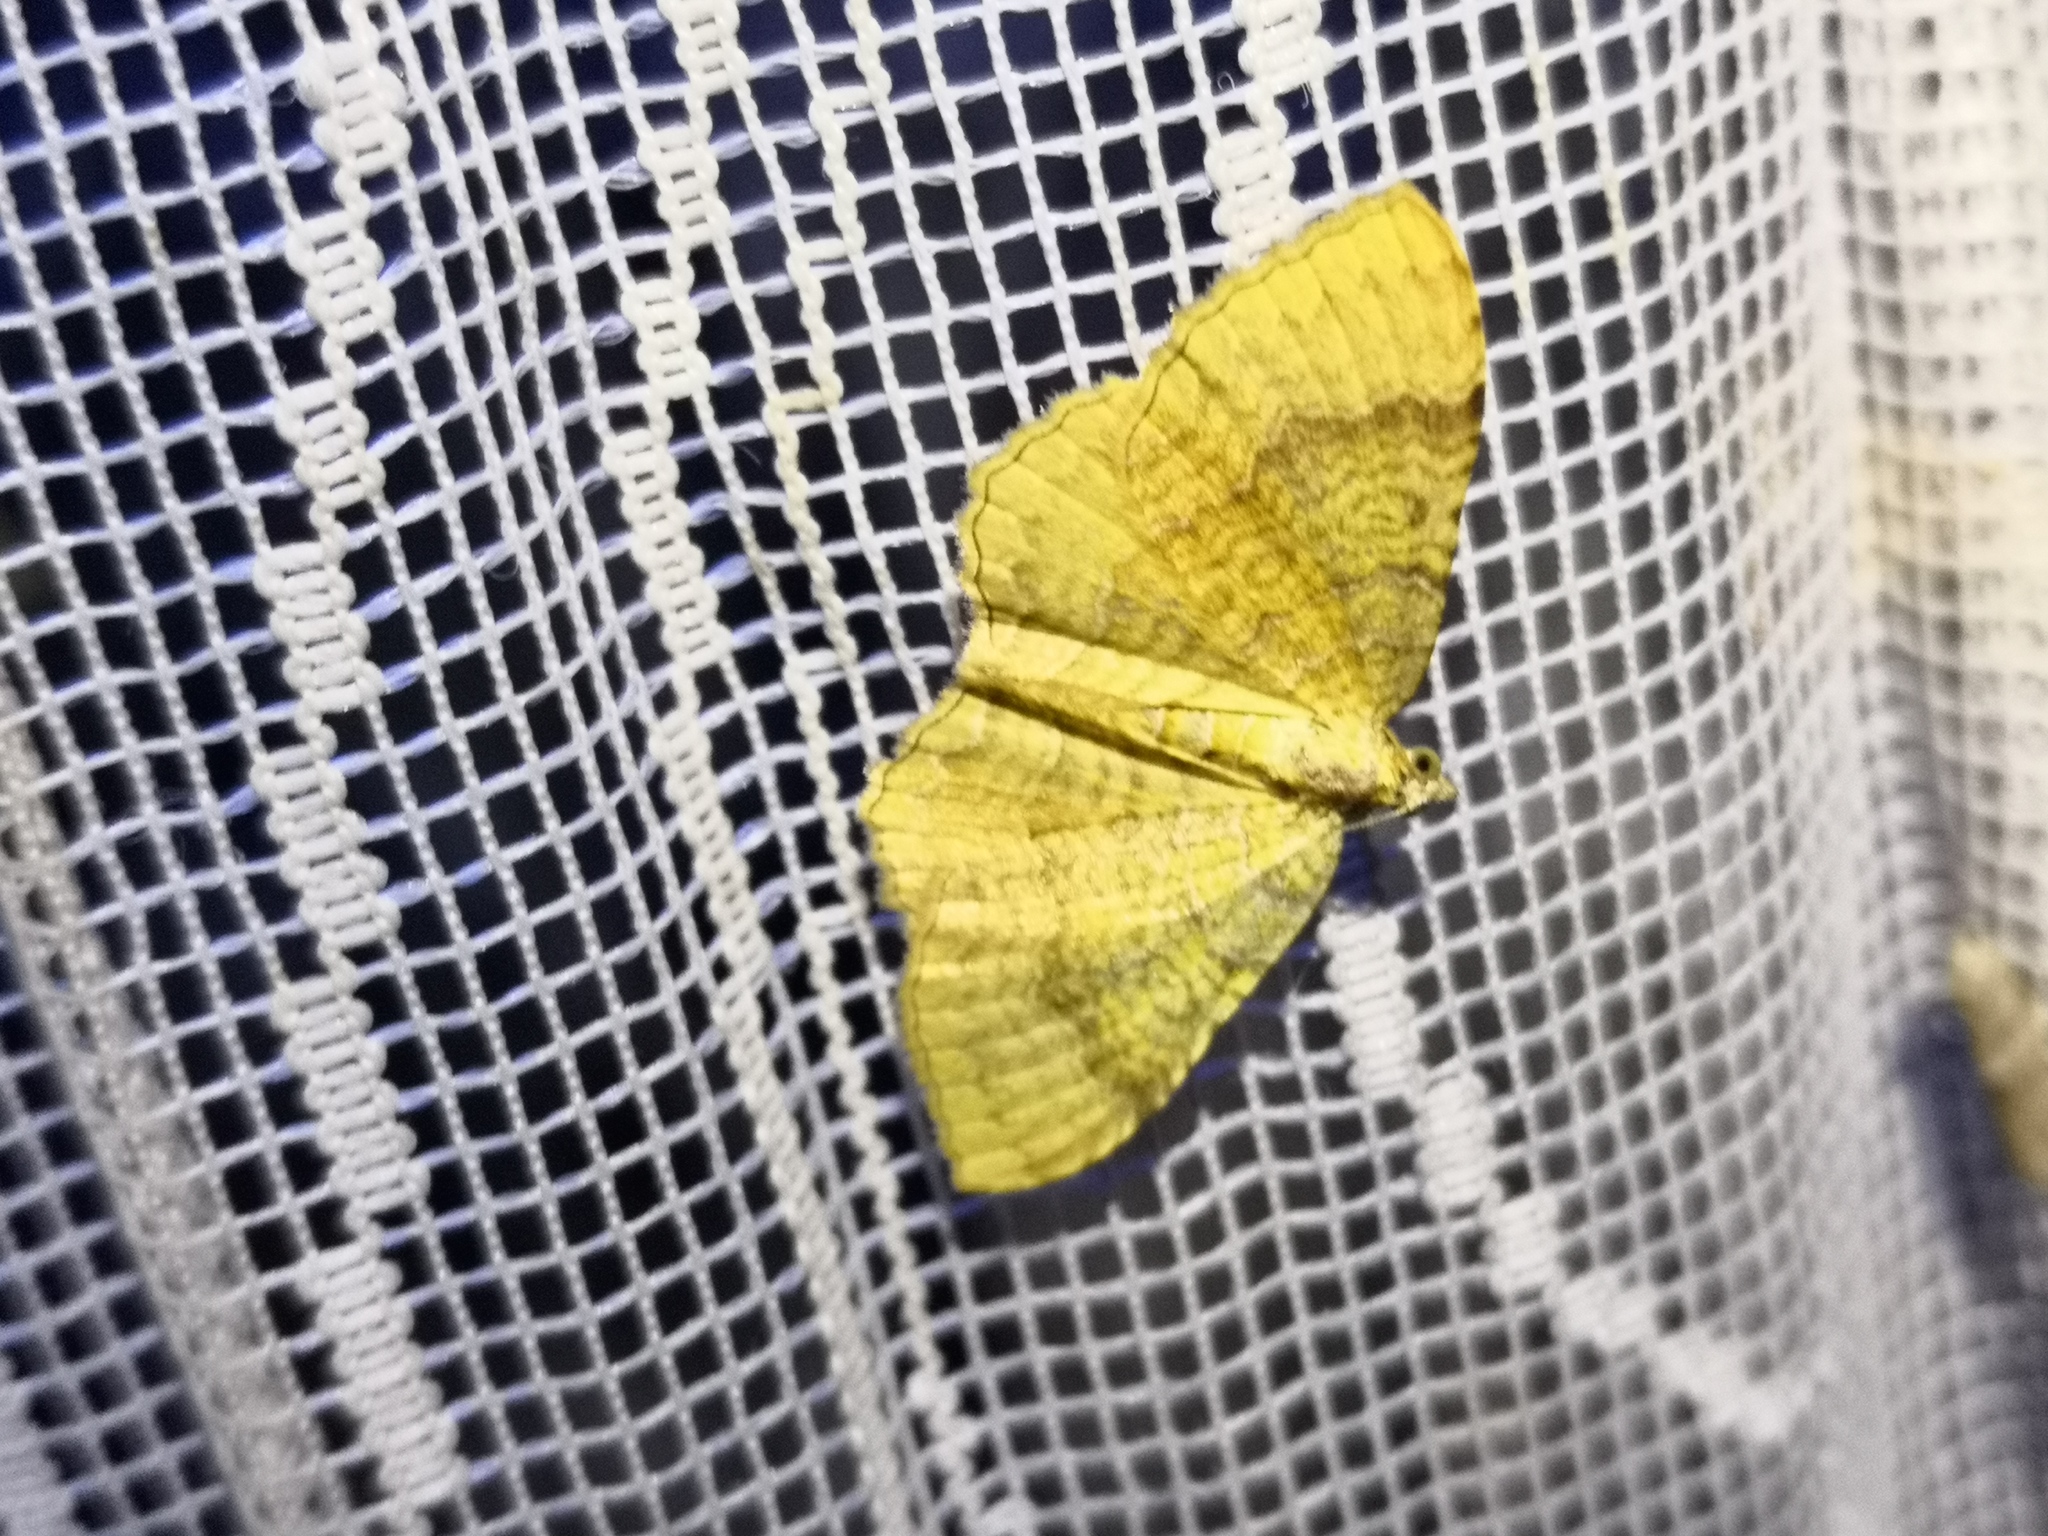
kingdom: Animalia
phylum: Arthropoda
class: Insecta
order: Lepidoptera
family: Geometridae
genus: Camptogramma
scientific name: Camptogramma bilineata
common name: Yellow shell
